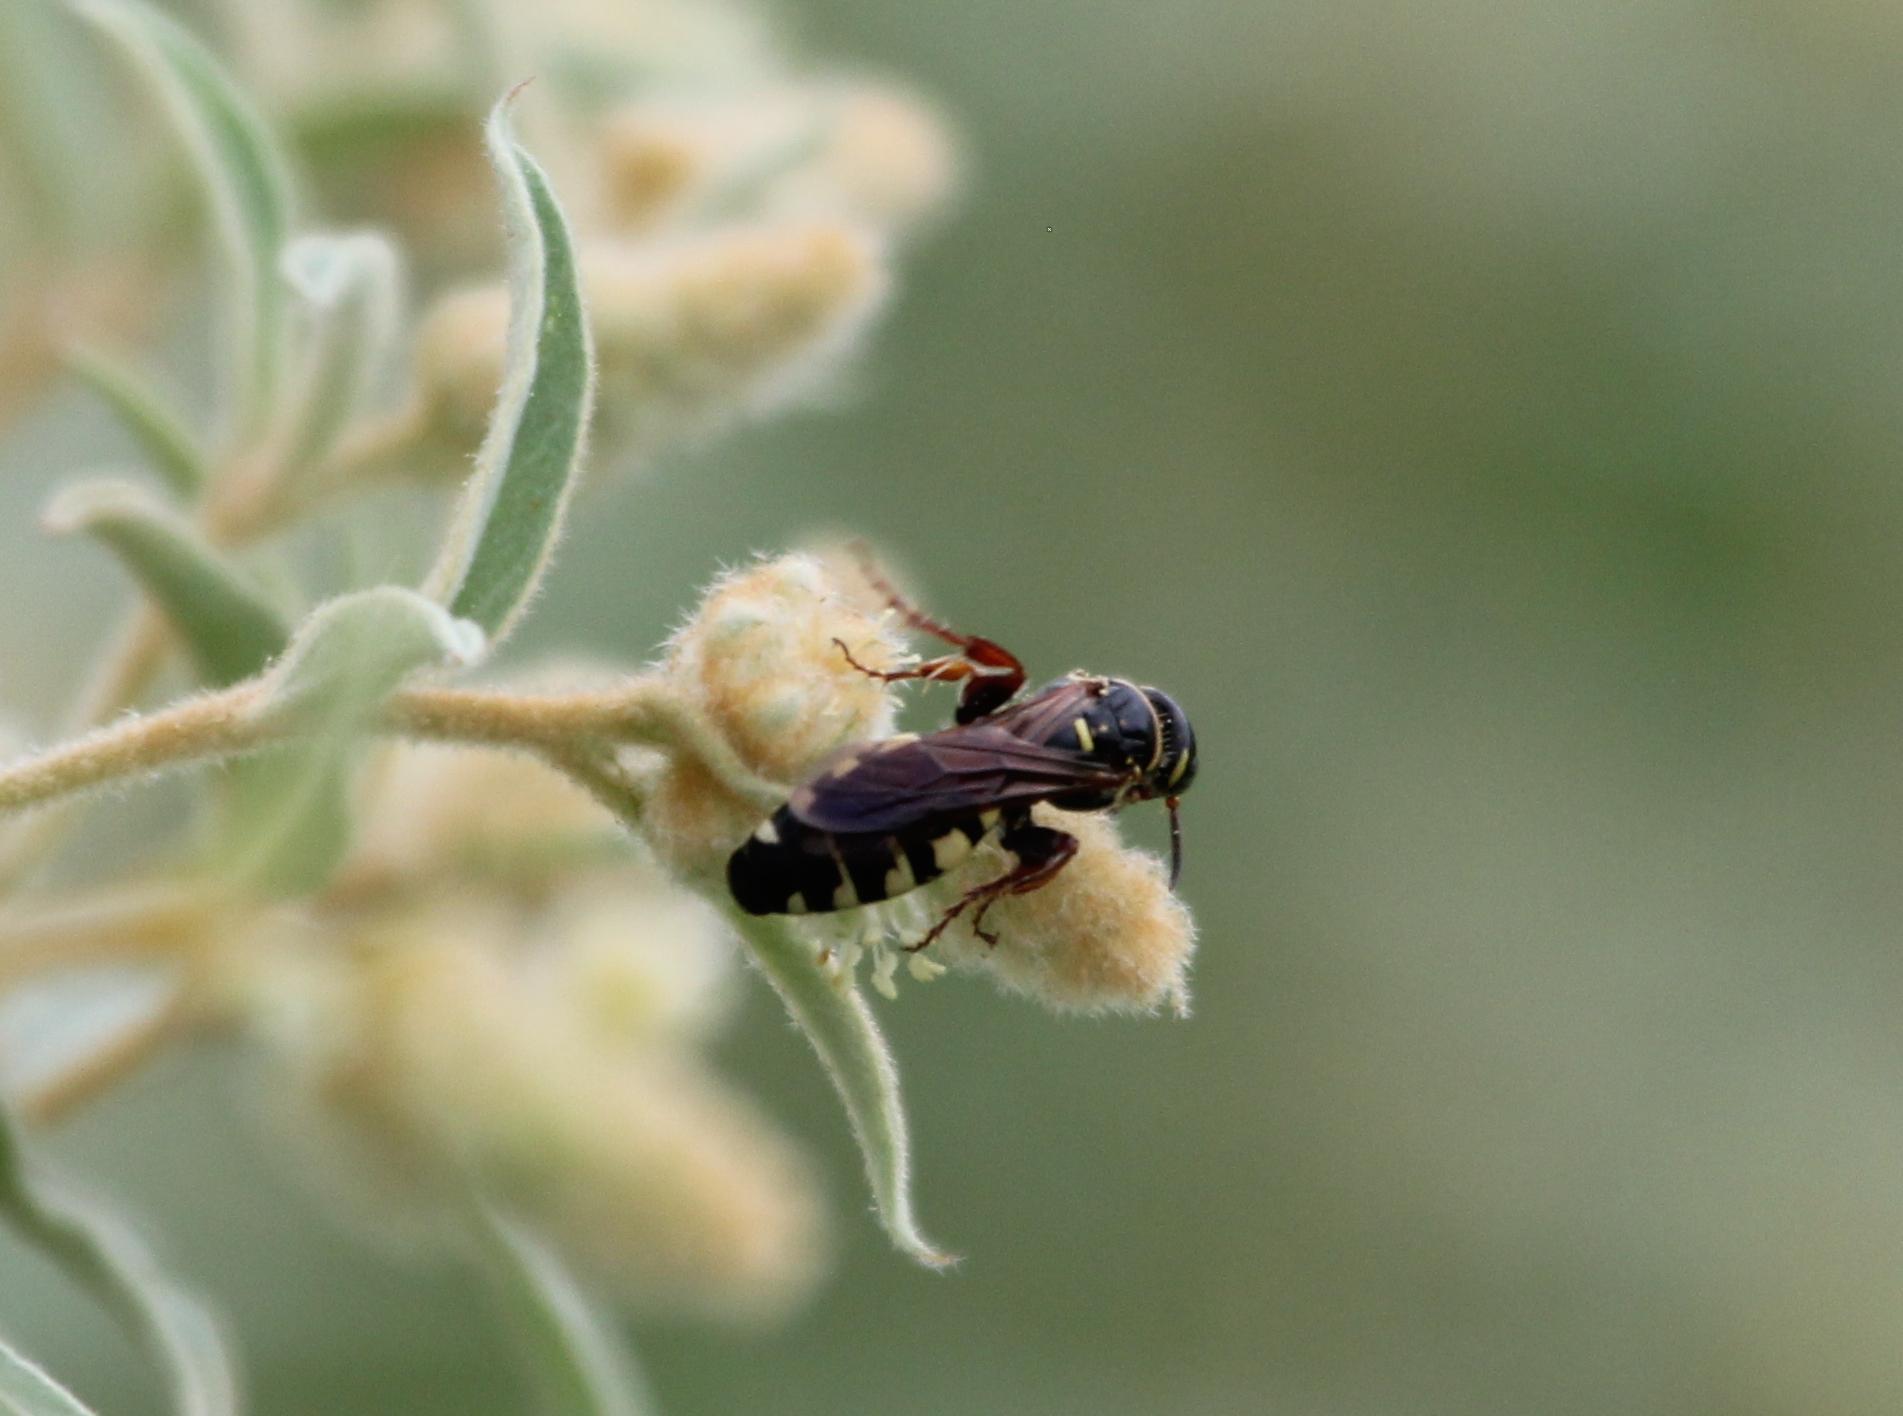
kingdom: Animalia
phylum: Arthropoda
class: Insecta
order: Hymenoptera
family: Tiphiidae
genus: Myzinum
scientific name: Myzinum
